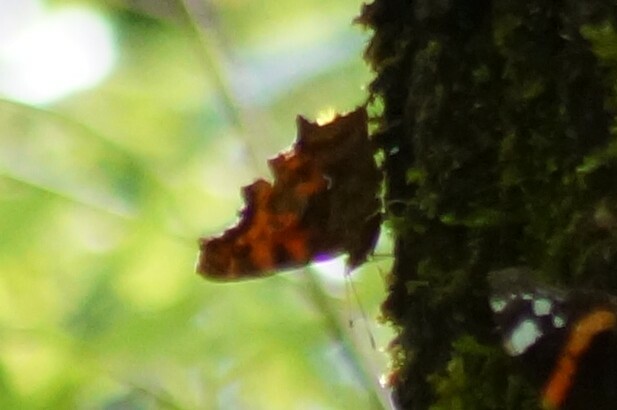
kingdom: Animalia
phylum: Arthropoda
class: Insecta
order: Lepidoptera
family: Nymphalidae
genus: Polygonia
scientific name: Polygonia c-album
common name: Comma
